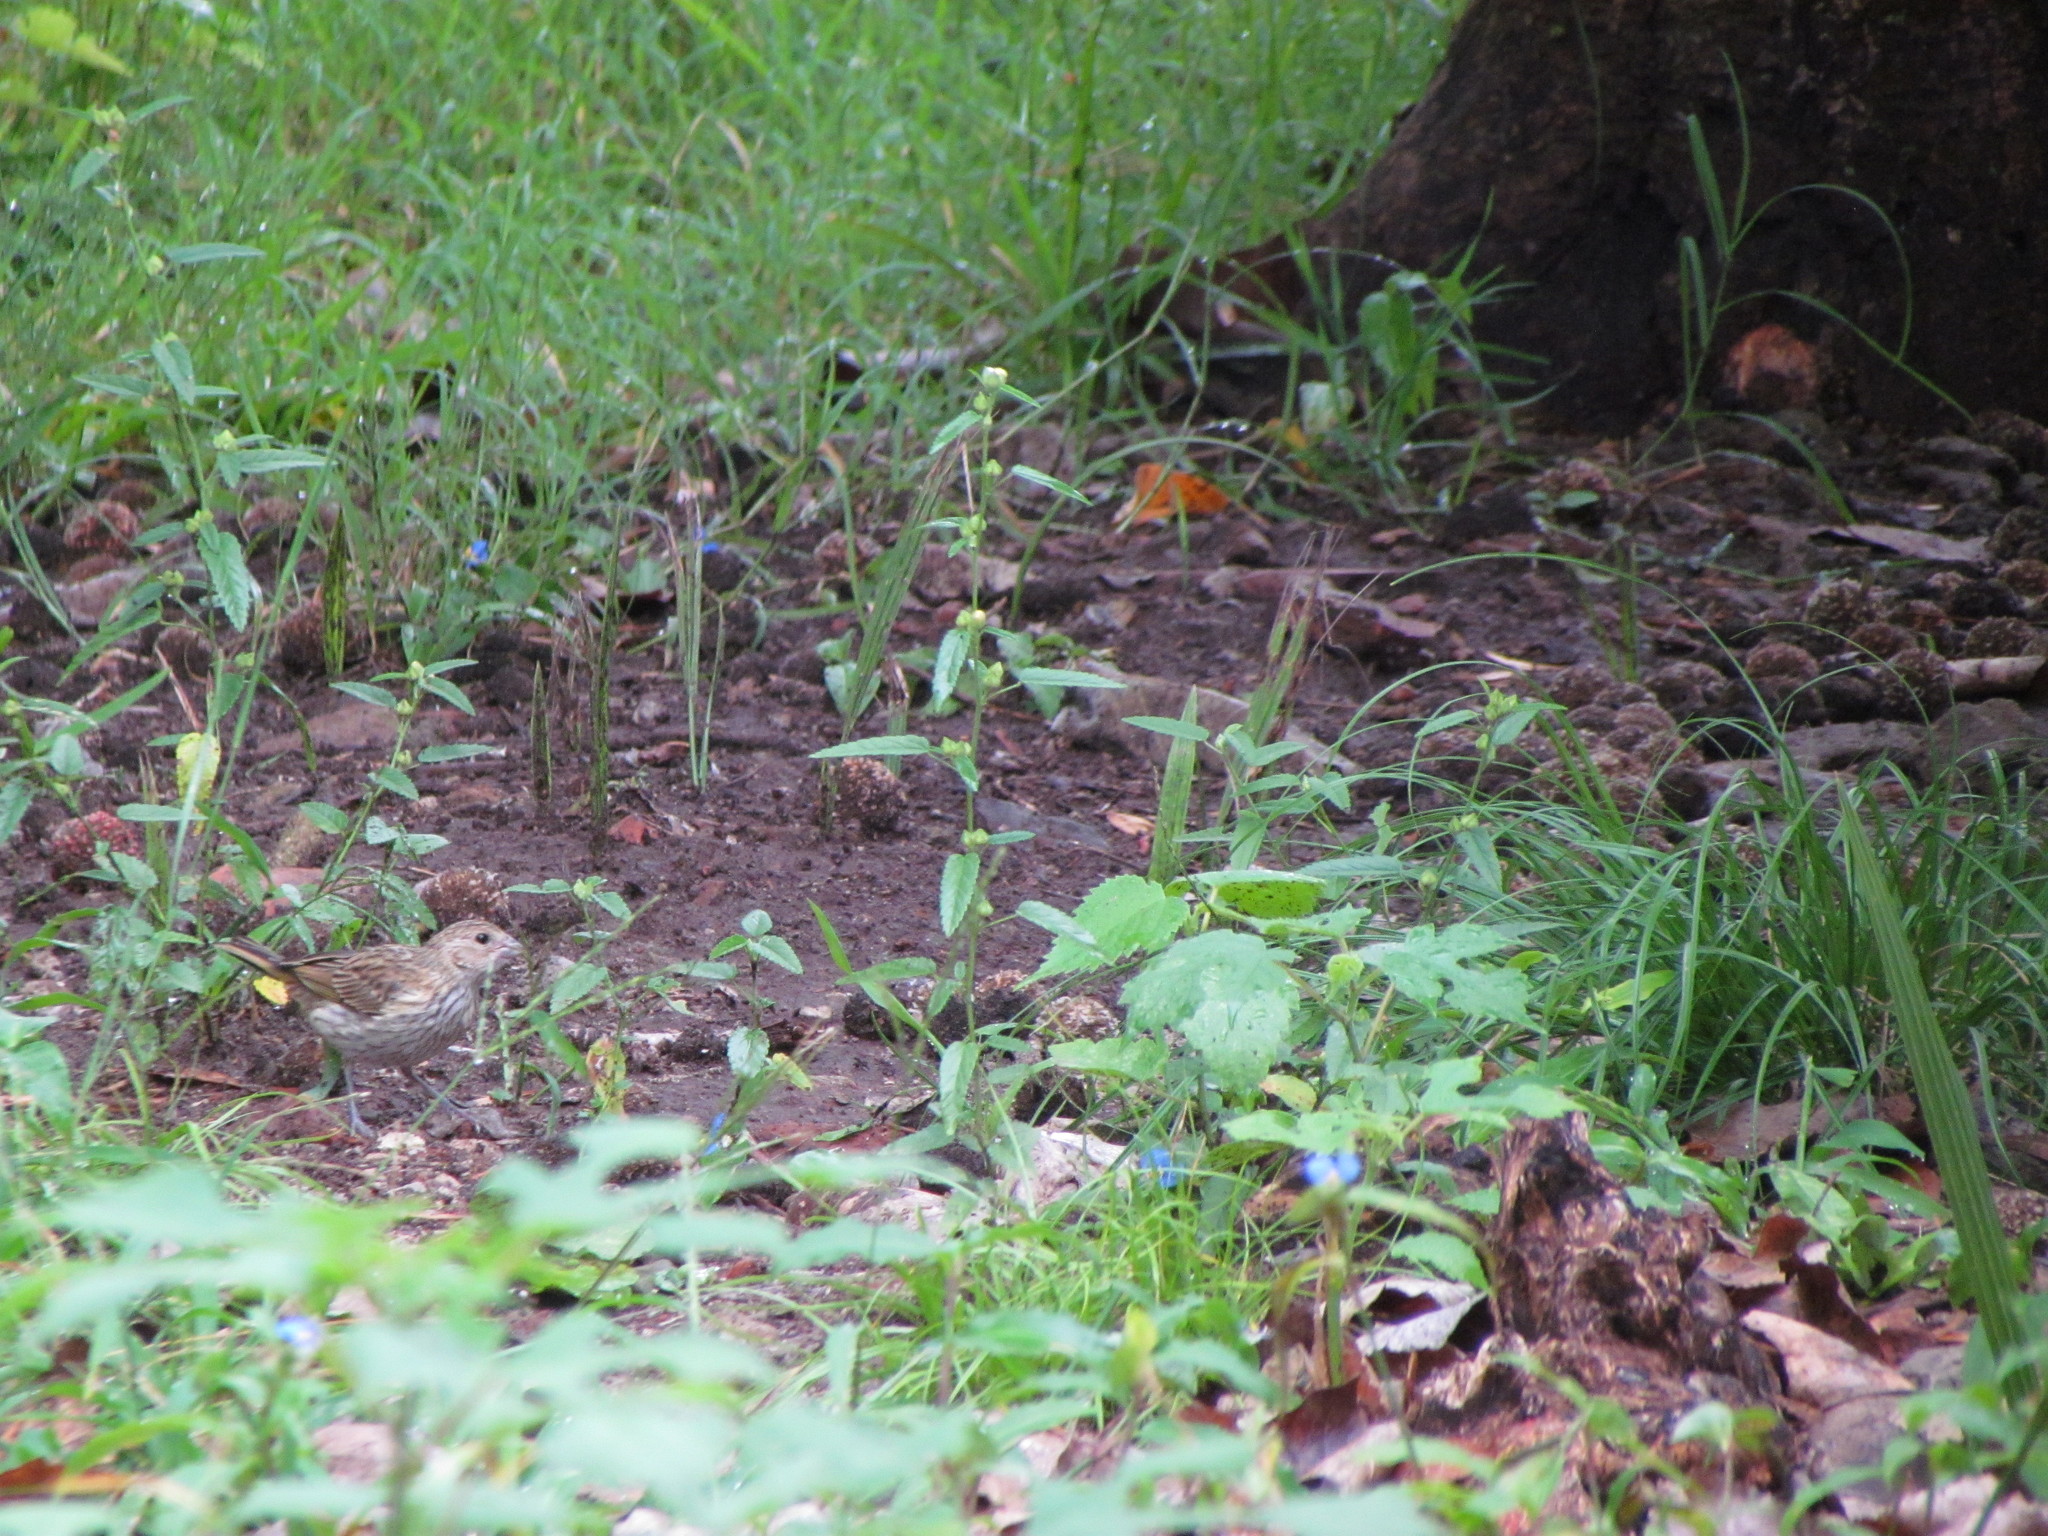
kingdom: Animalia
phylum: Chordata
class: Aves
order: Passeriformes
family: Thraupidae
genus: Sicalis
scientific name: Sicalis flaveola
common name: Saffron finch
